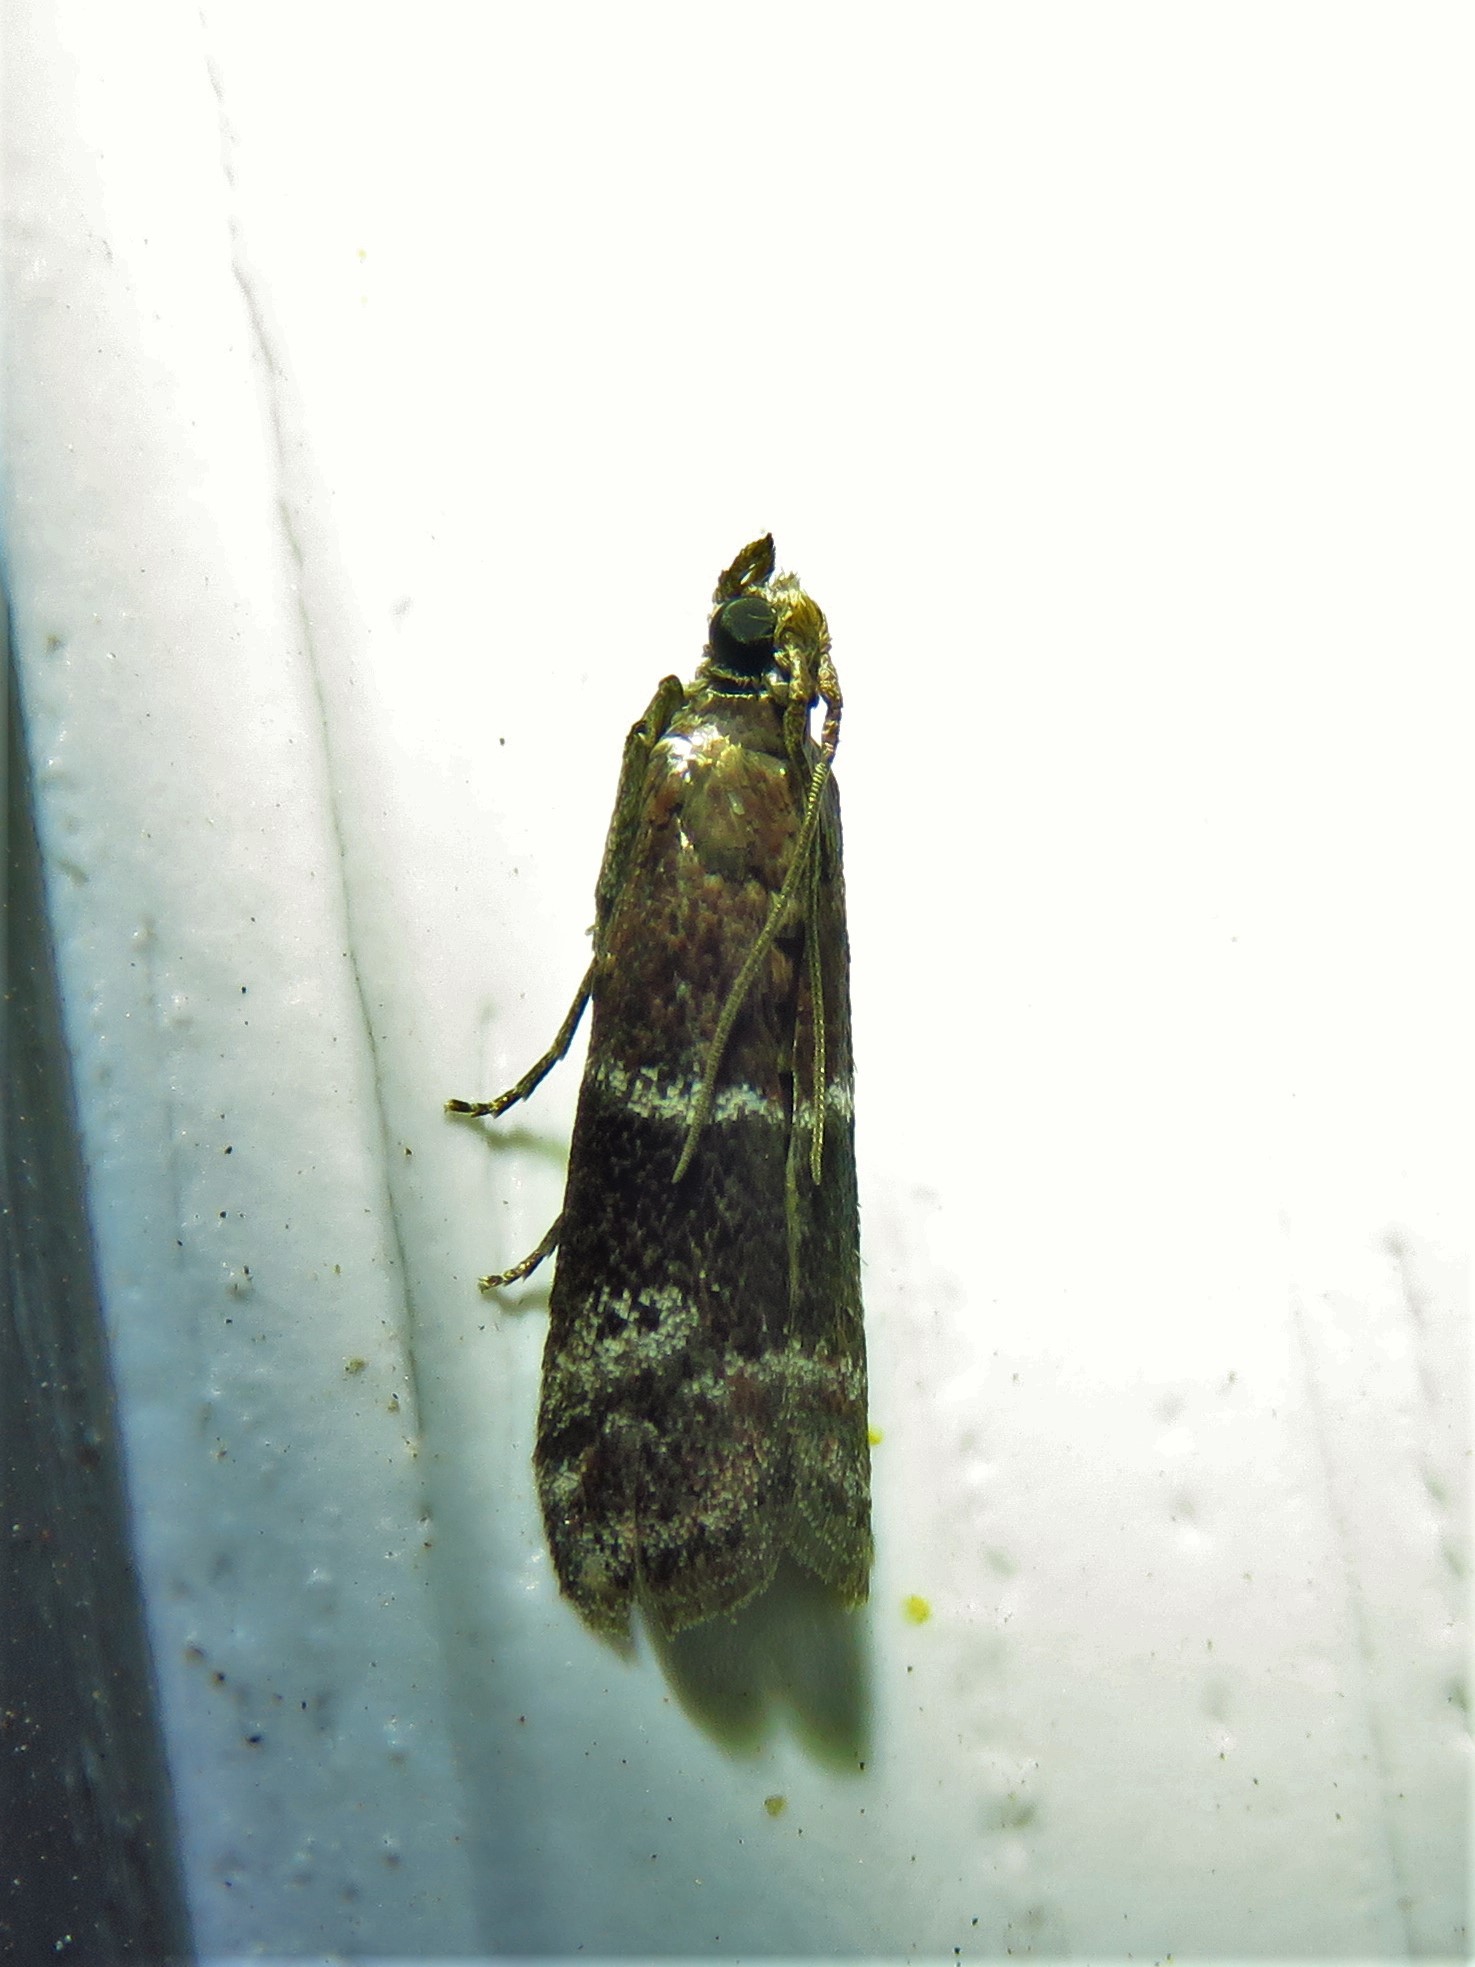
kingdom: Animalia
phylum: Arthropoda
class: Insecta
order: Lepidoptera
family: Pyralidae
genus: Moodna
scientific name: Moodna ostrinella
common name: Darker moodna moth
